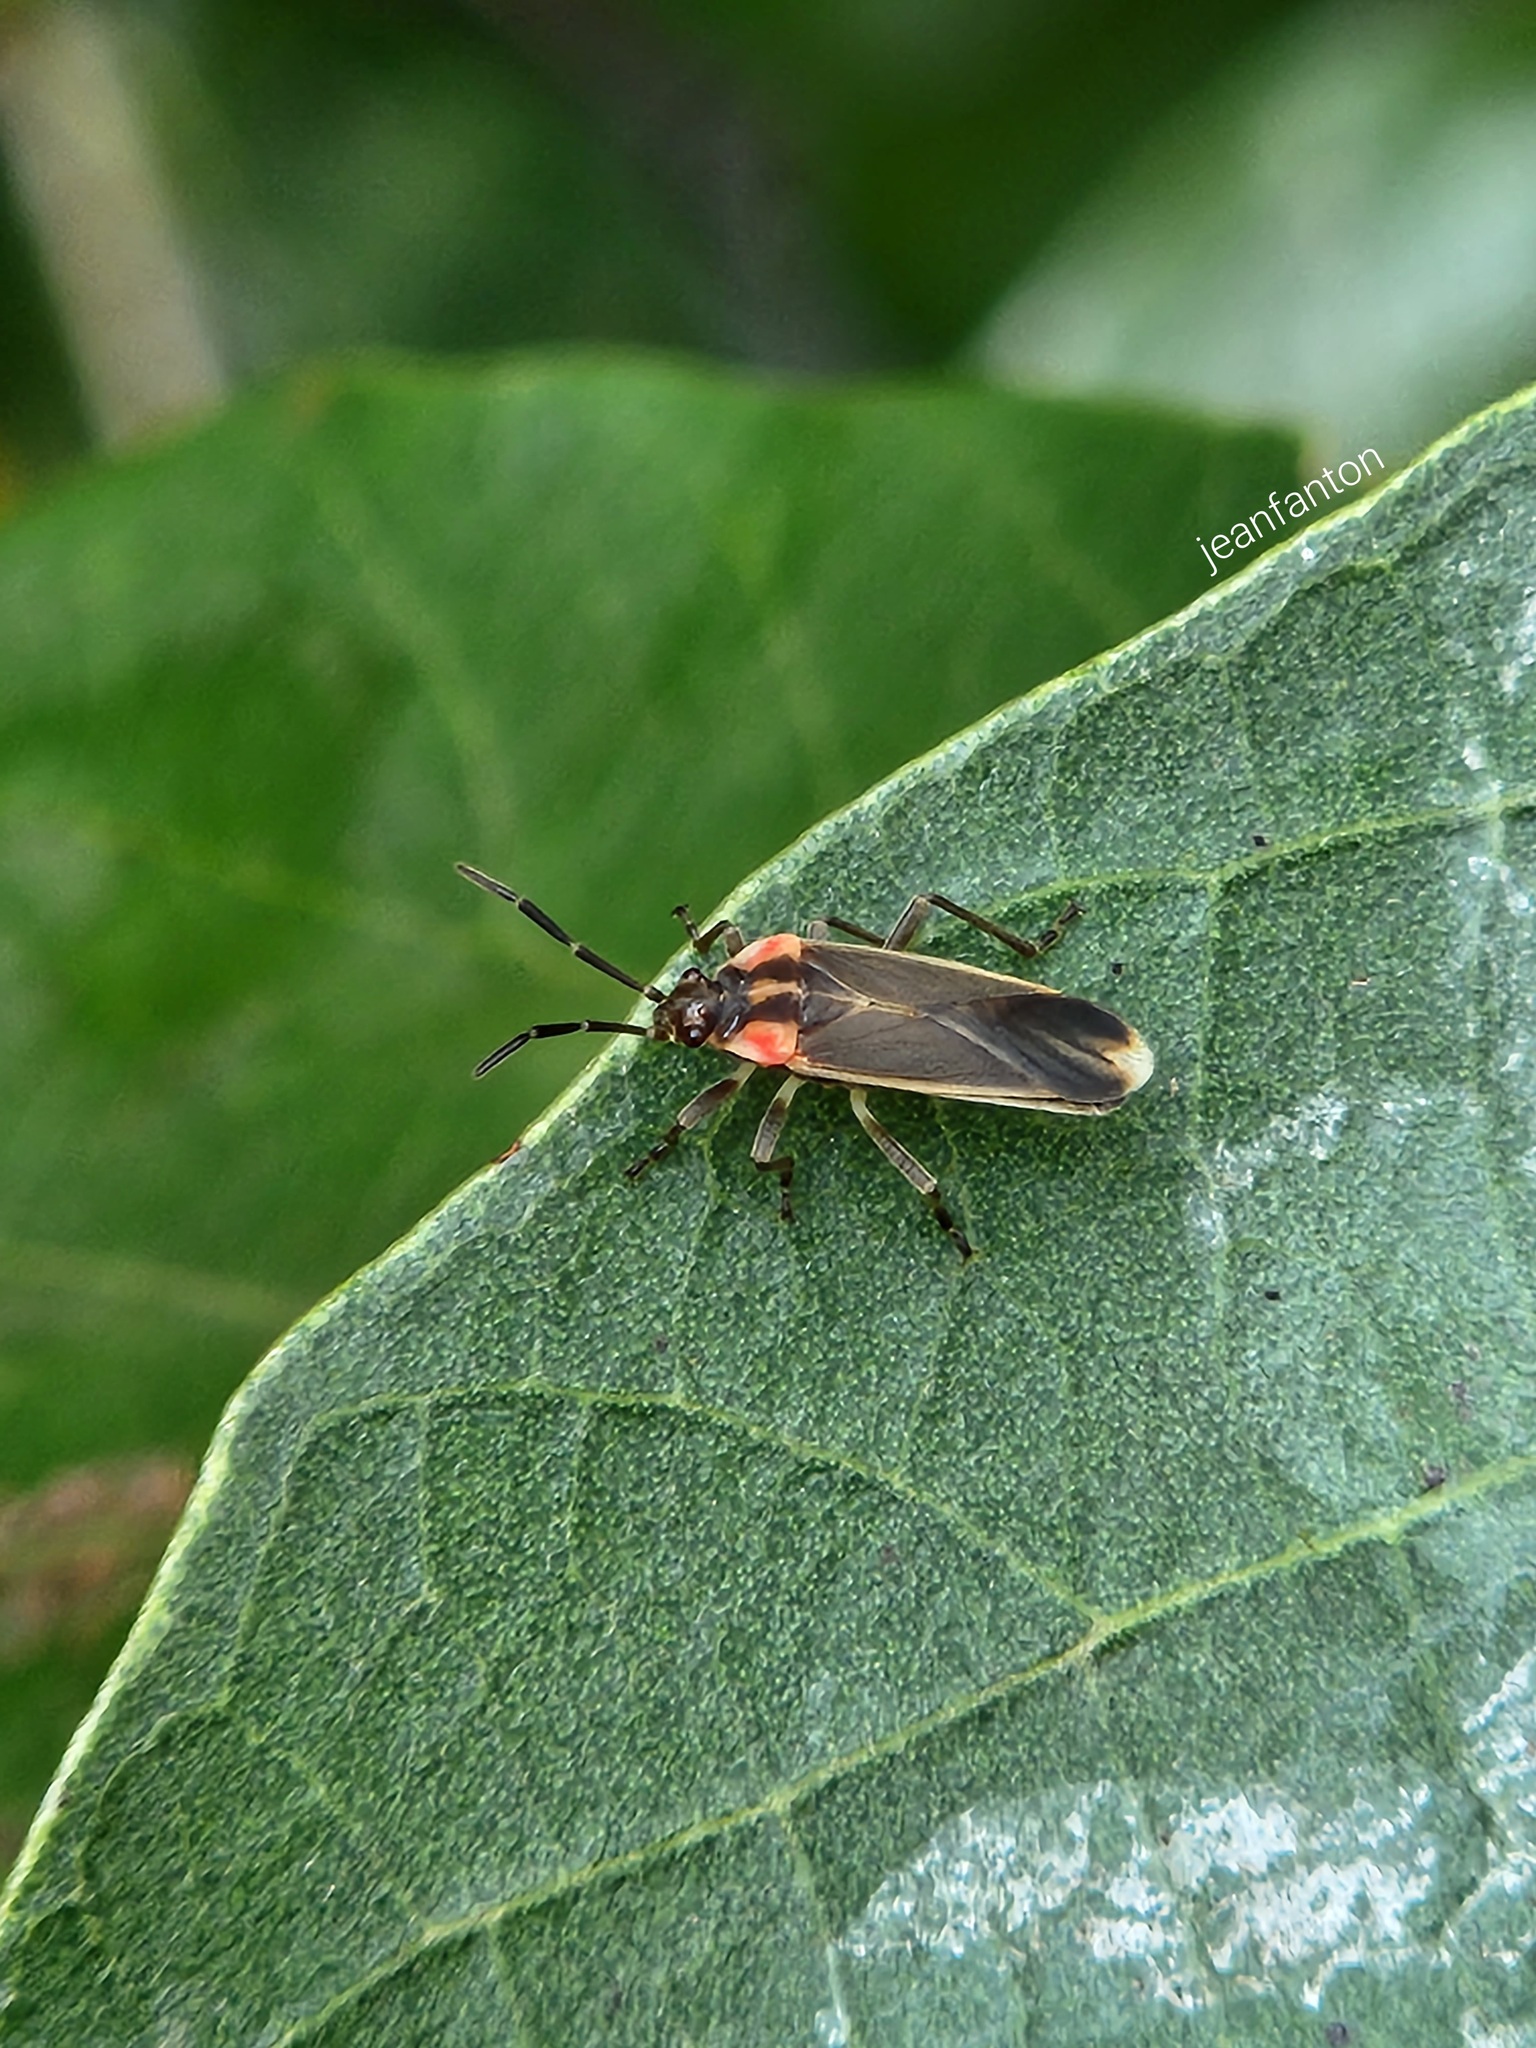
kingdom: Animalia
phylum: Arthropoda
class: Insecta
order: Hemiptera
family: Lygaeidae
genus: Acroleucus
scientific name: Acroleucus coxalis
